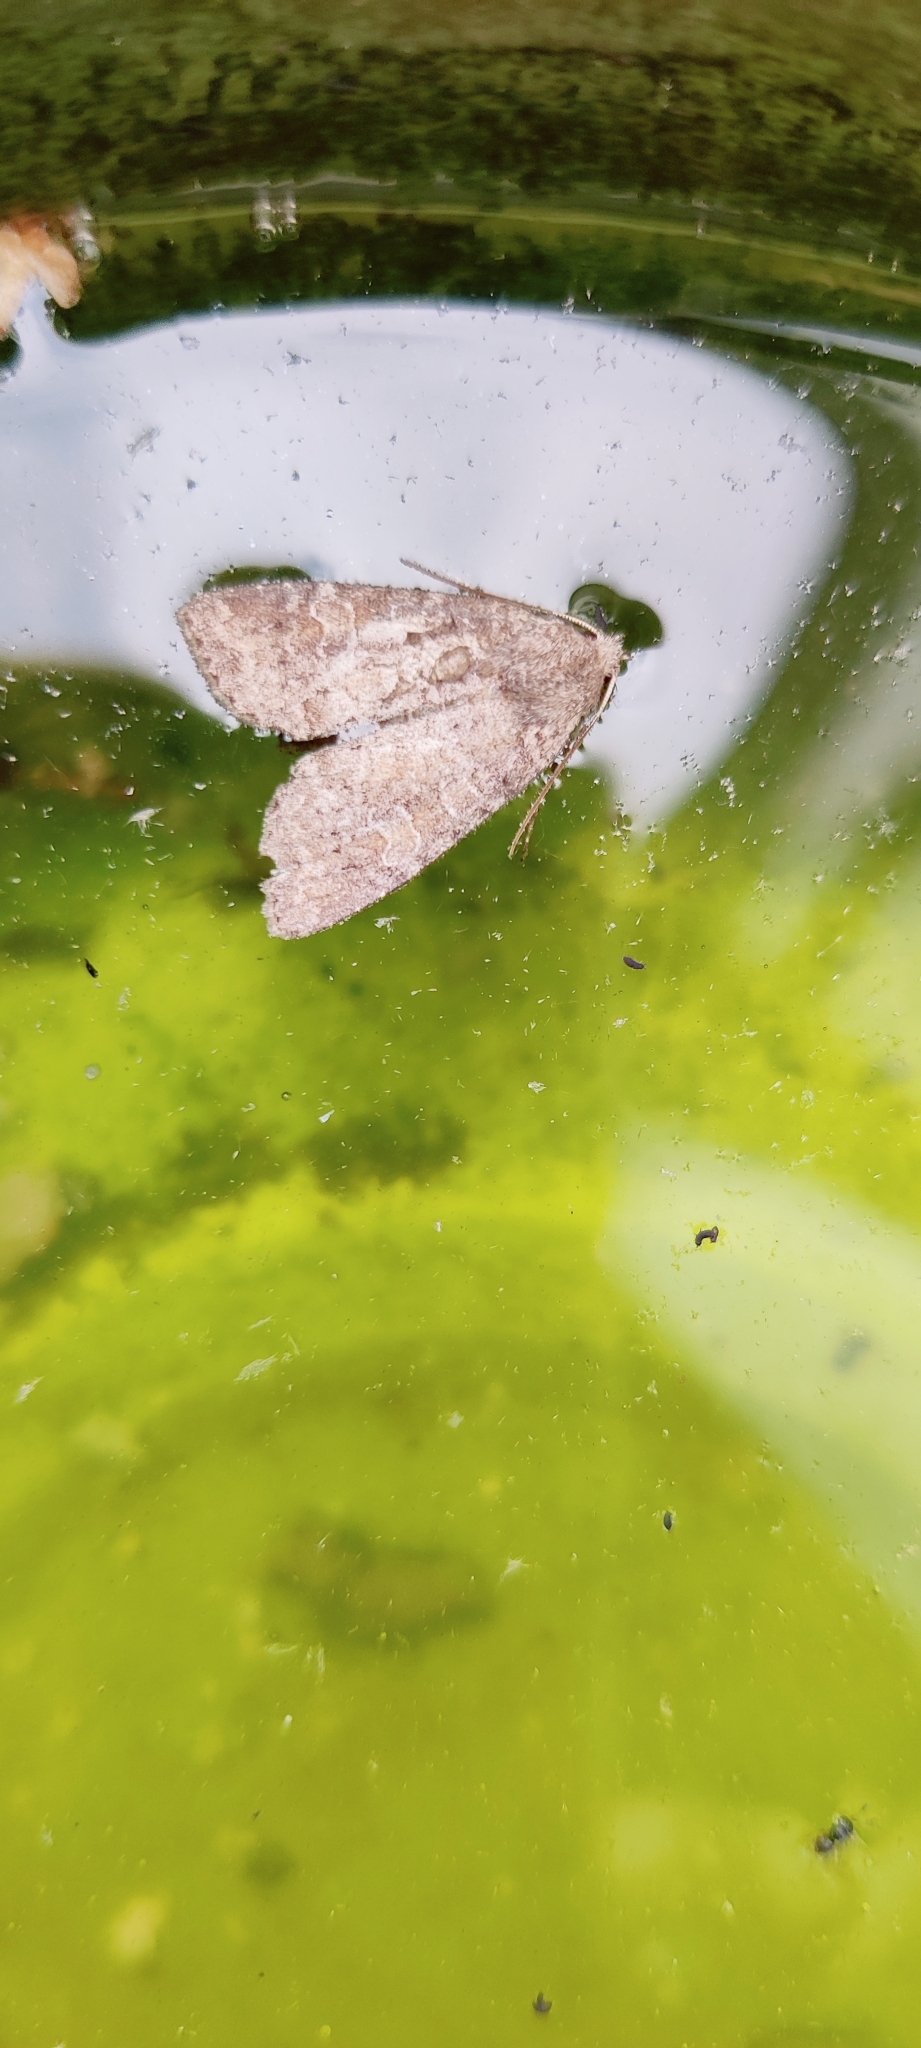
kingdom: Animalia
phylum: Arthropoda
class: Insecta
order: Lepidoptera
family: Noctuidae
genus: Parastichtis
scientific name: Parastichtis suspecta
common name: Suspected
